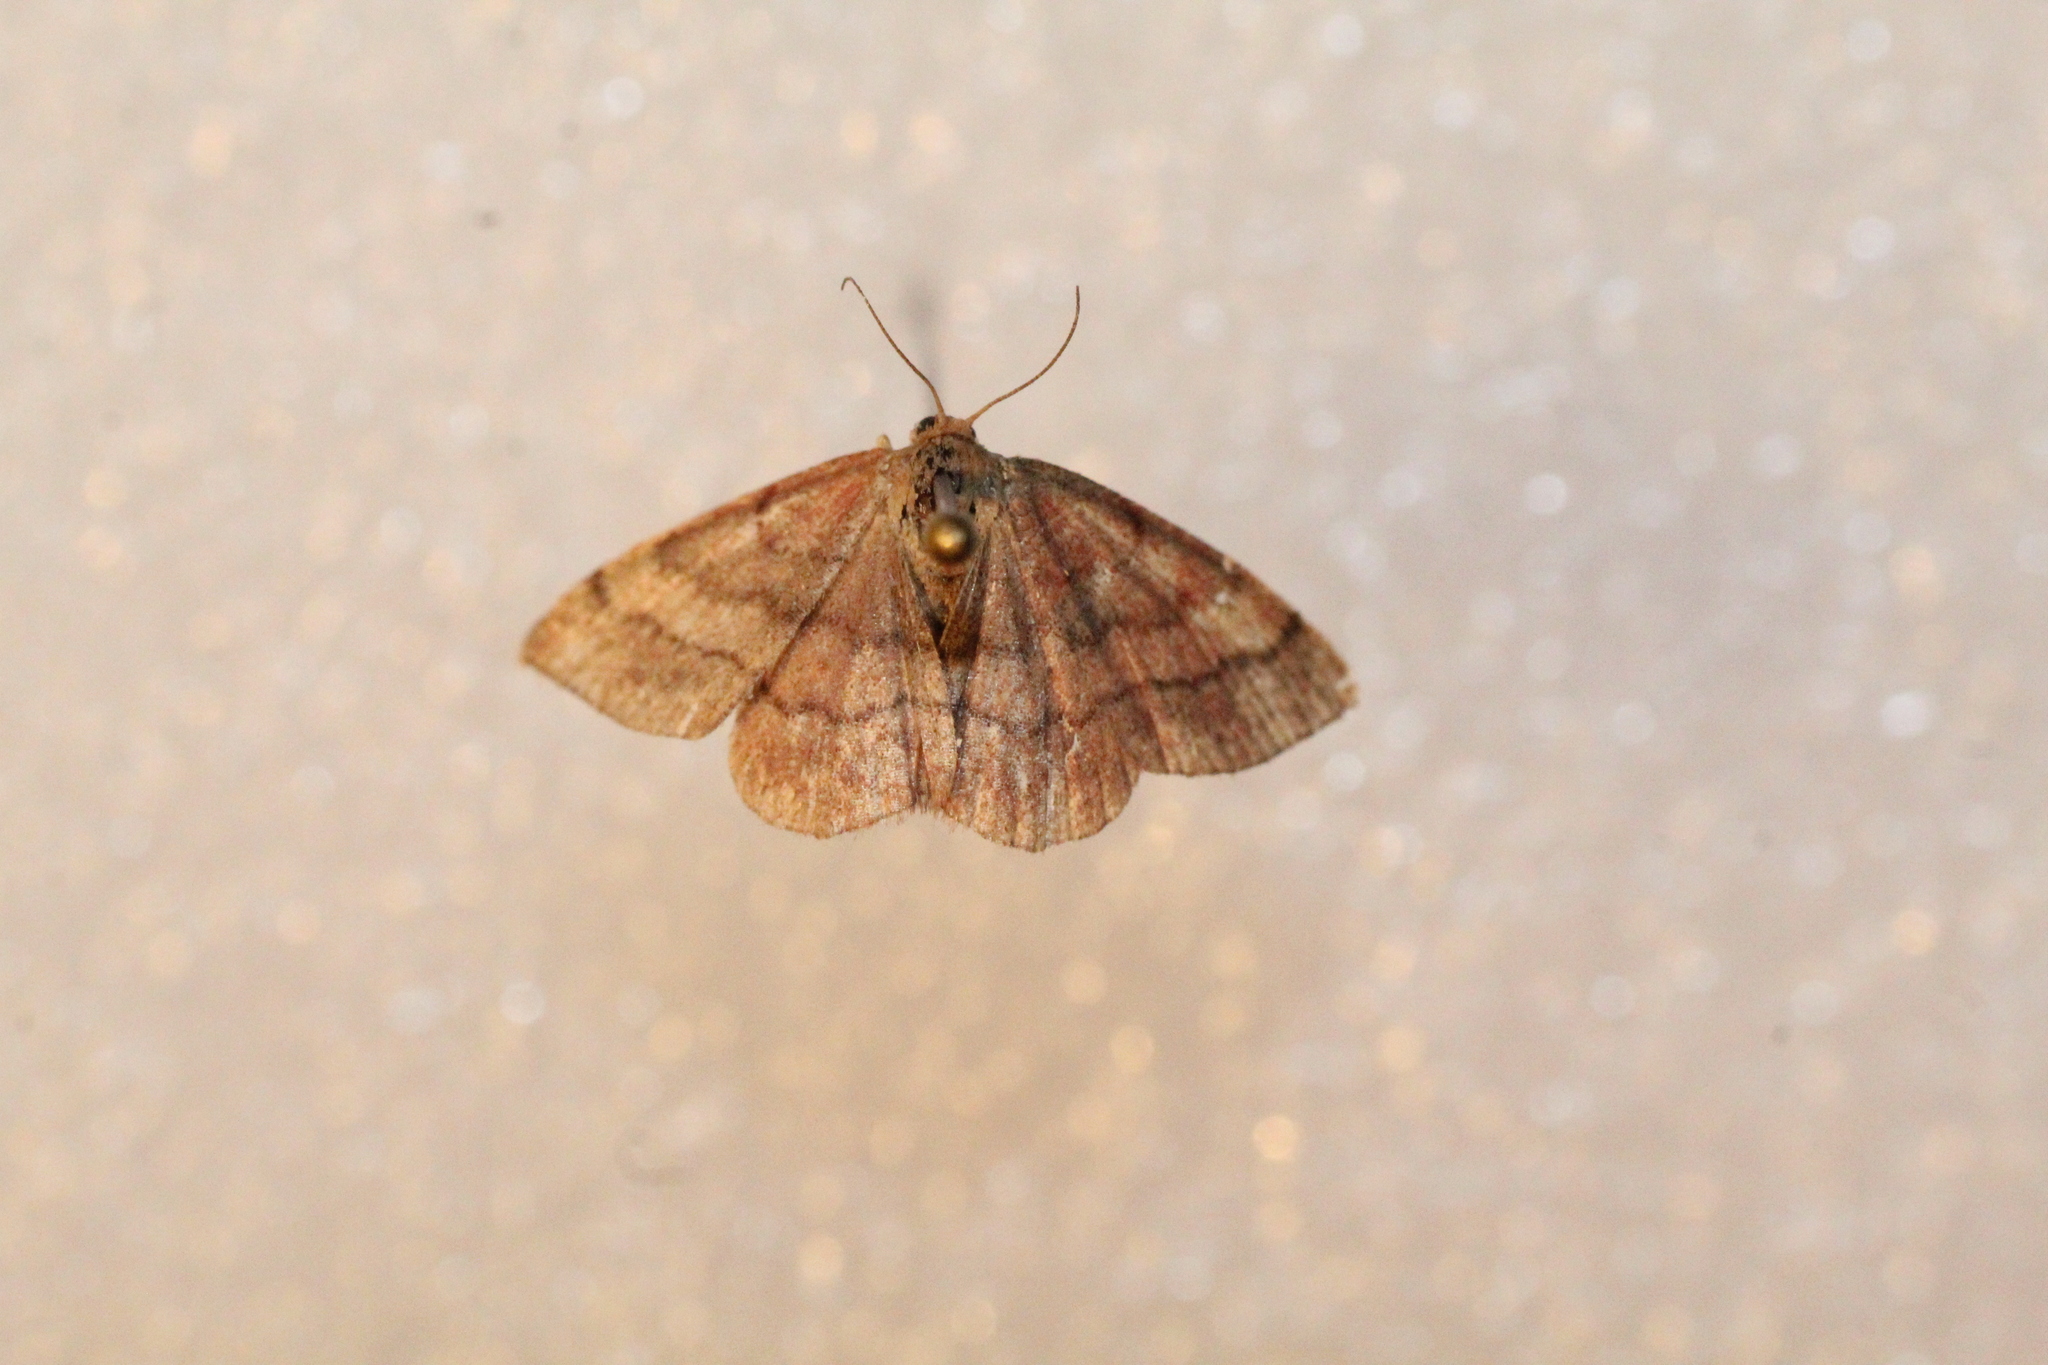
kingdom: Animalia
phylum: Arthropoda
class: Insecta
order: Lepidoptera
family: Geometridae
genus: Scopula
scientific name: Scopula rubiginata
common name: Tawny wave
